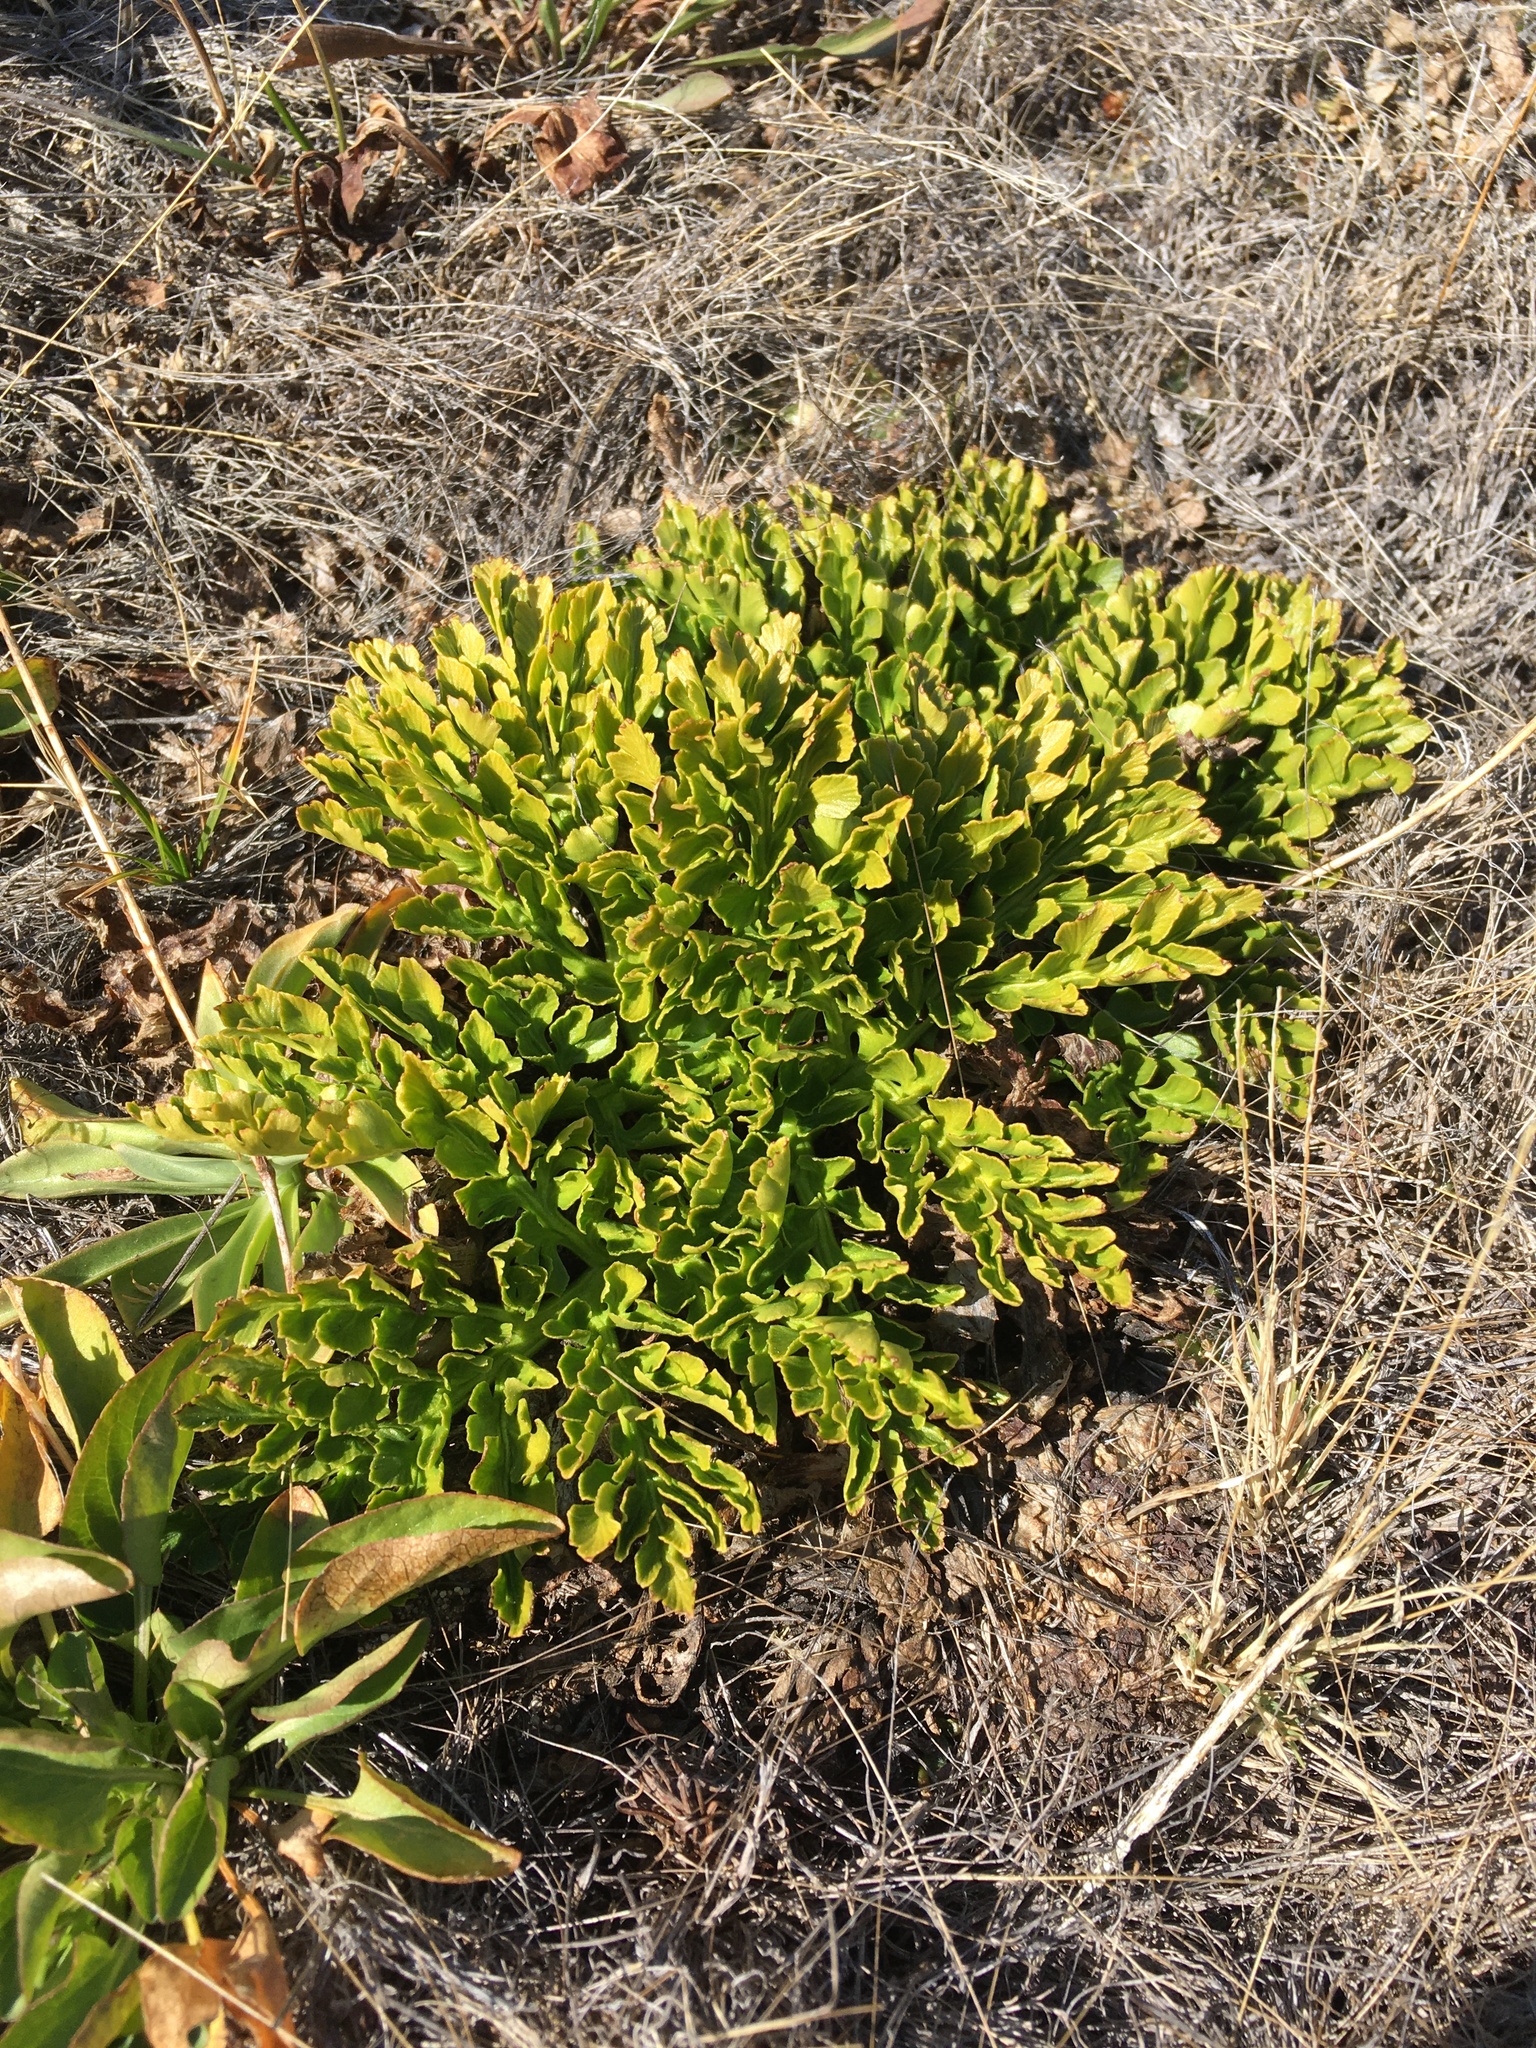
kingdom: Plantae
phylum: Tracheophyta
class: Polypodiopsida
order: Ophioglossales
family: Ophioglossaceae
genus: Sceptridium
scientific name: Sceptridium multifidum
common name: Leathery grape fern
